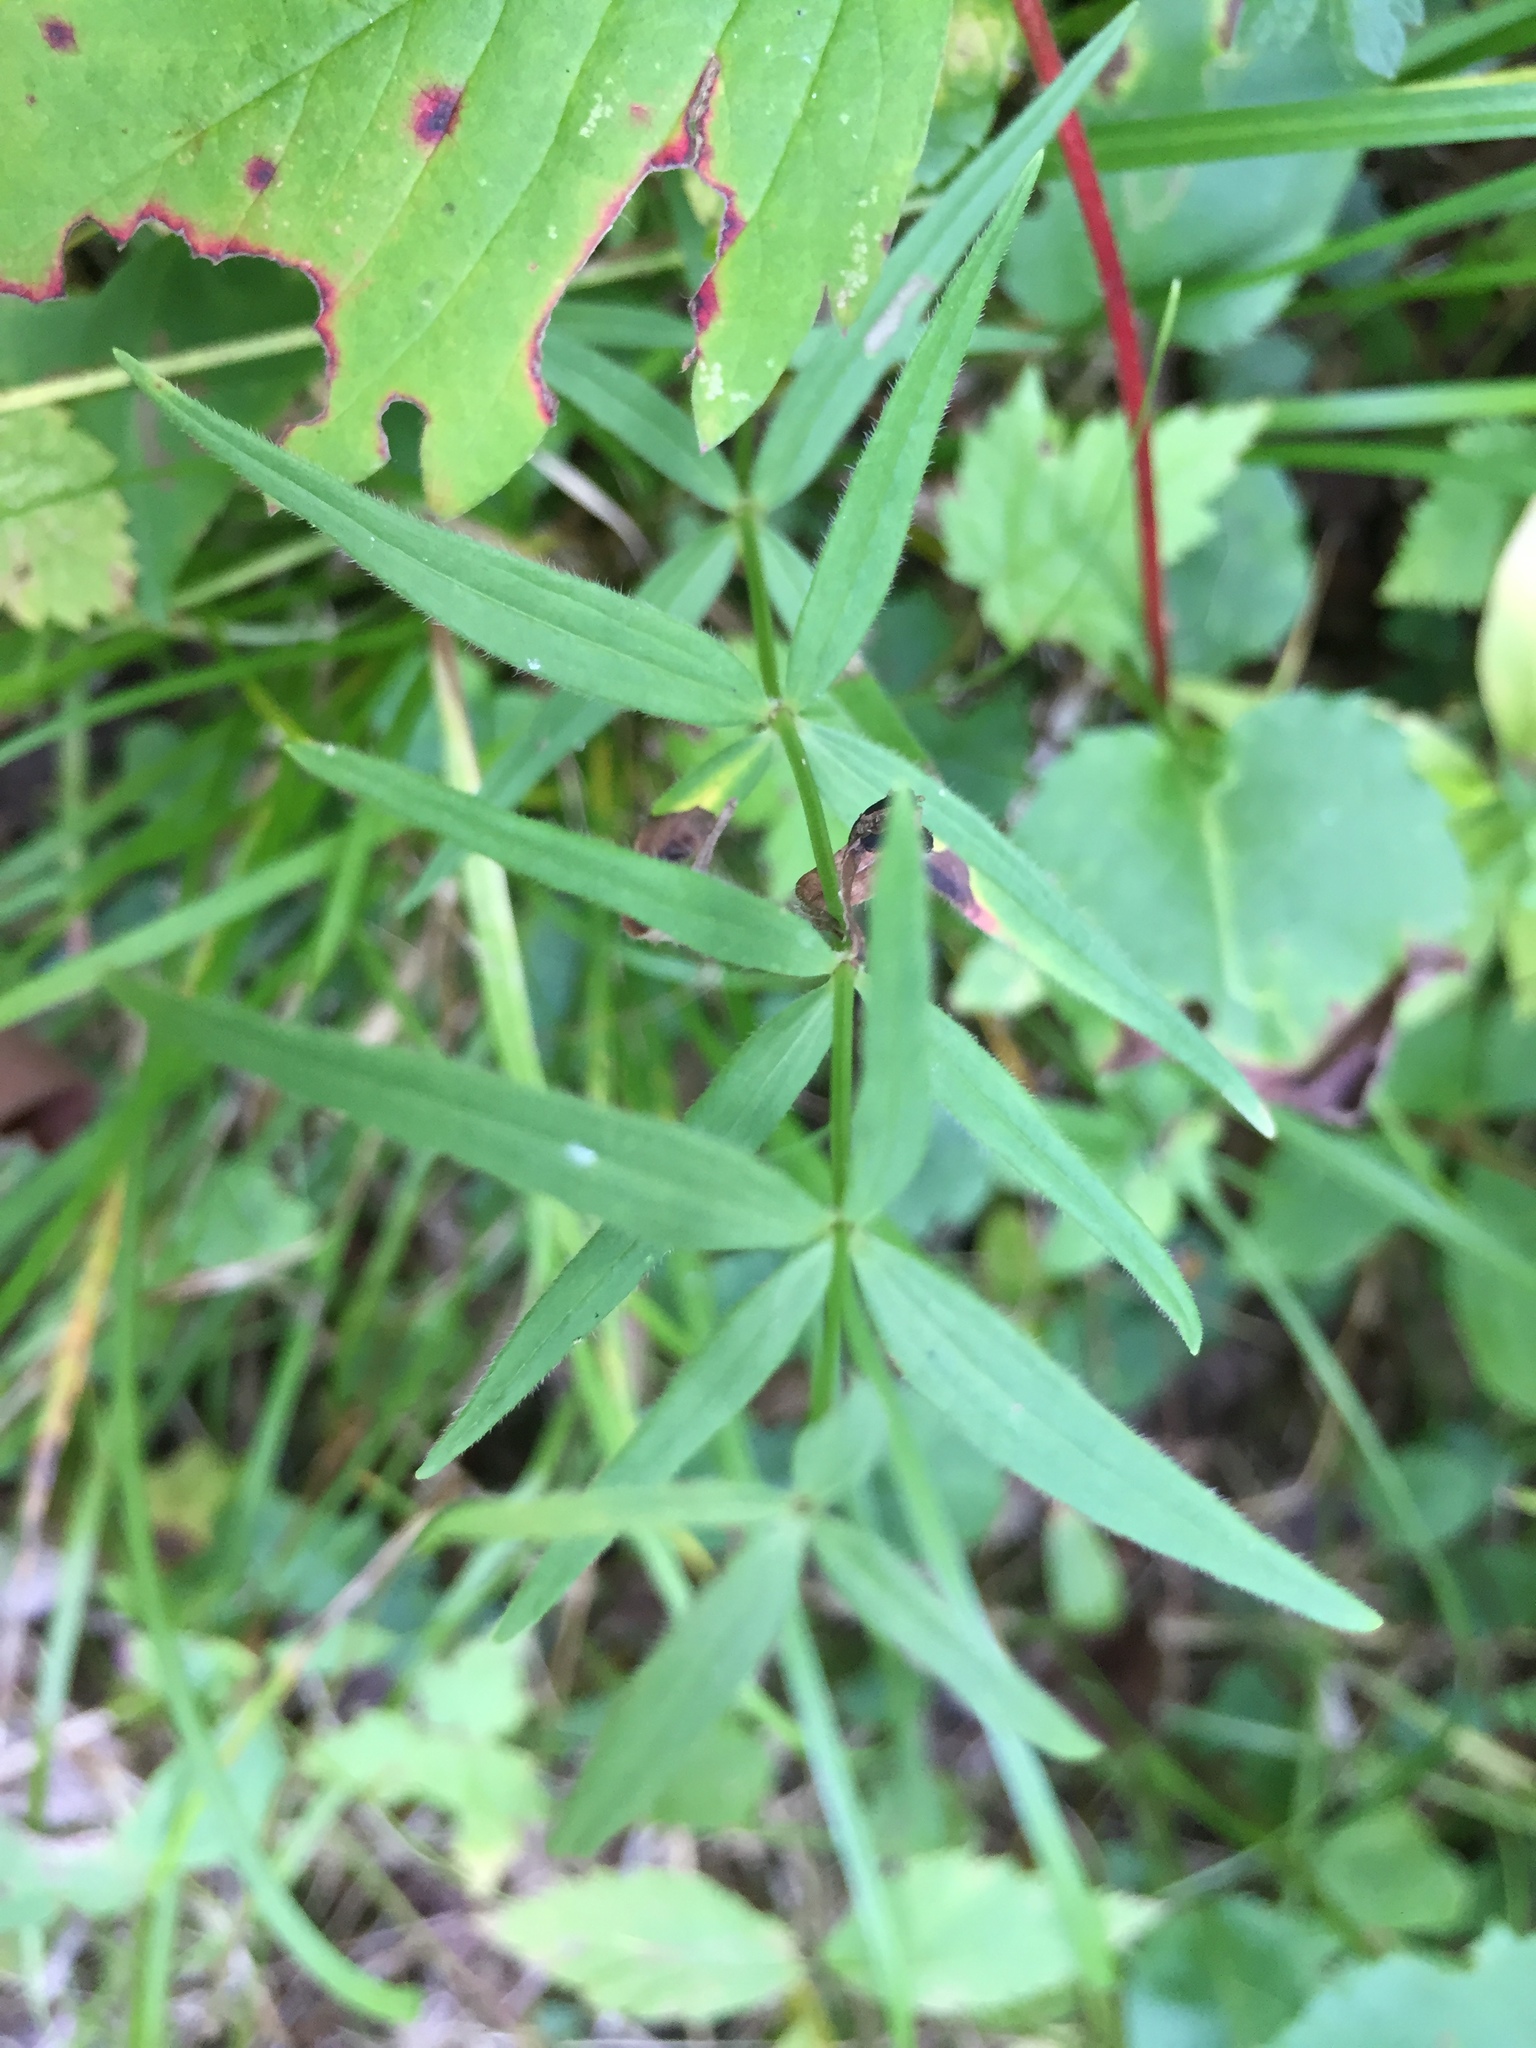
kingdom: Plantae
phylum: Tracheophyta
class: Magnoliopsida
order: Gentianales
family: Rubiaceae
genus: Galium
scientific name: Galium boreale
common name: Northern bedstraw
